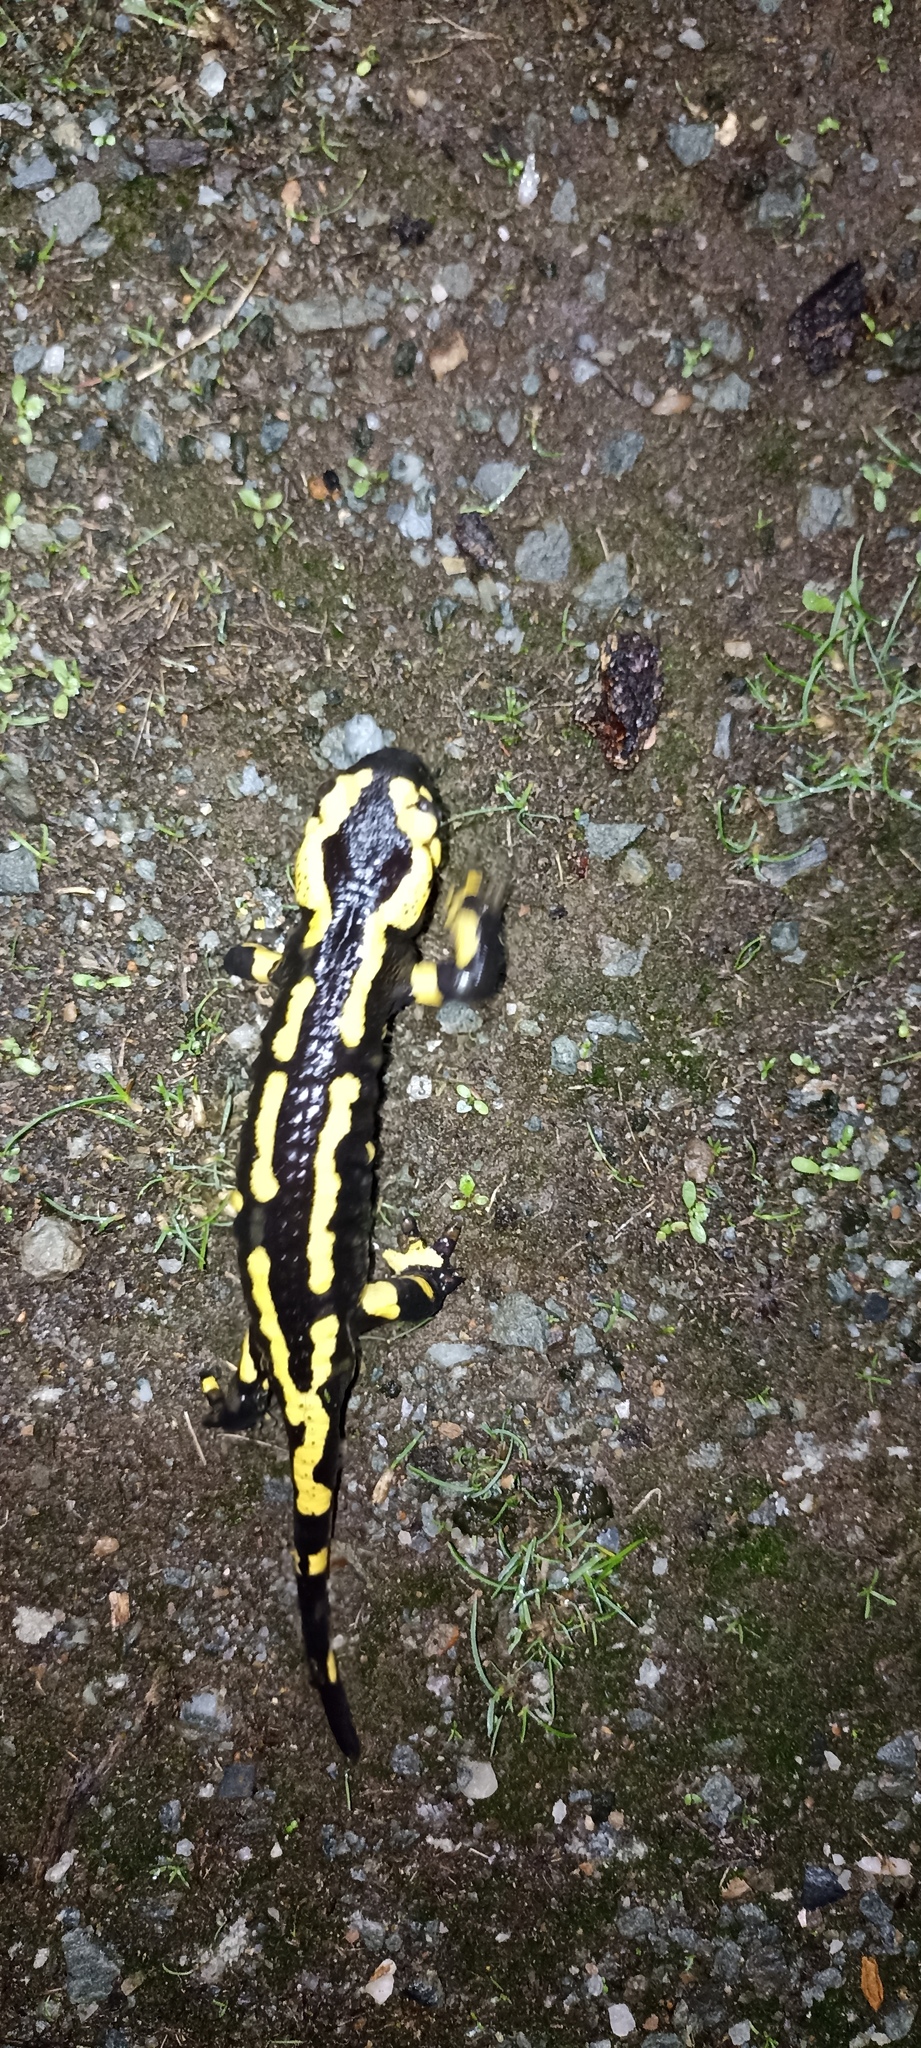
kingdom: Animalia
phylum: Chordata
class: Amphibia
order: Caudata
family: Salamandridae
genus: Salamandra
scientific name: Salamandra salamandra
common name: Fire salamander
